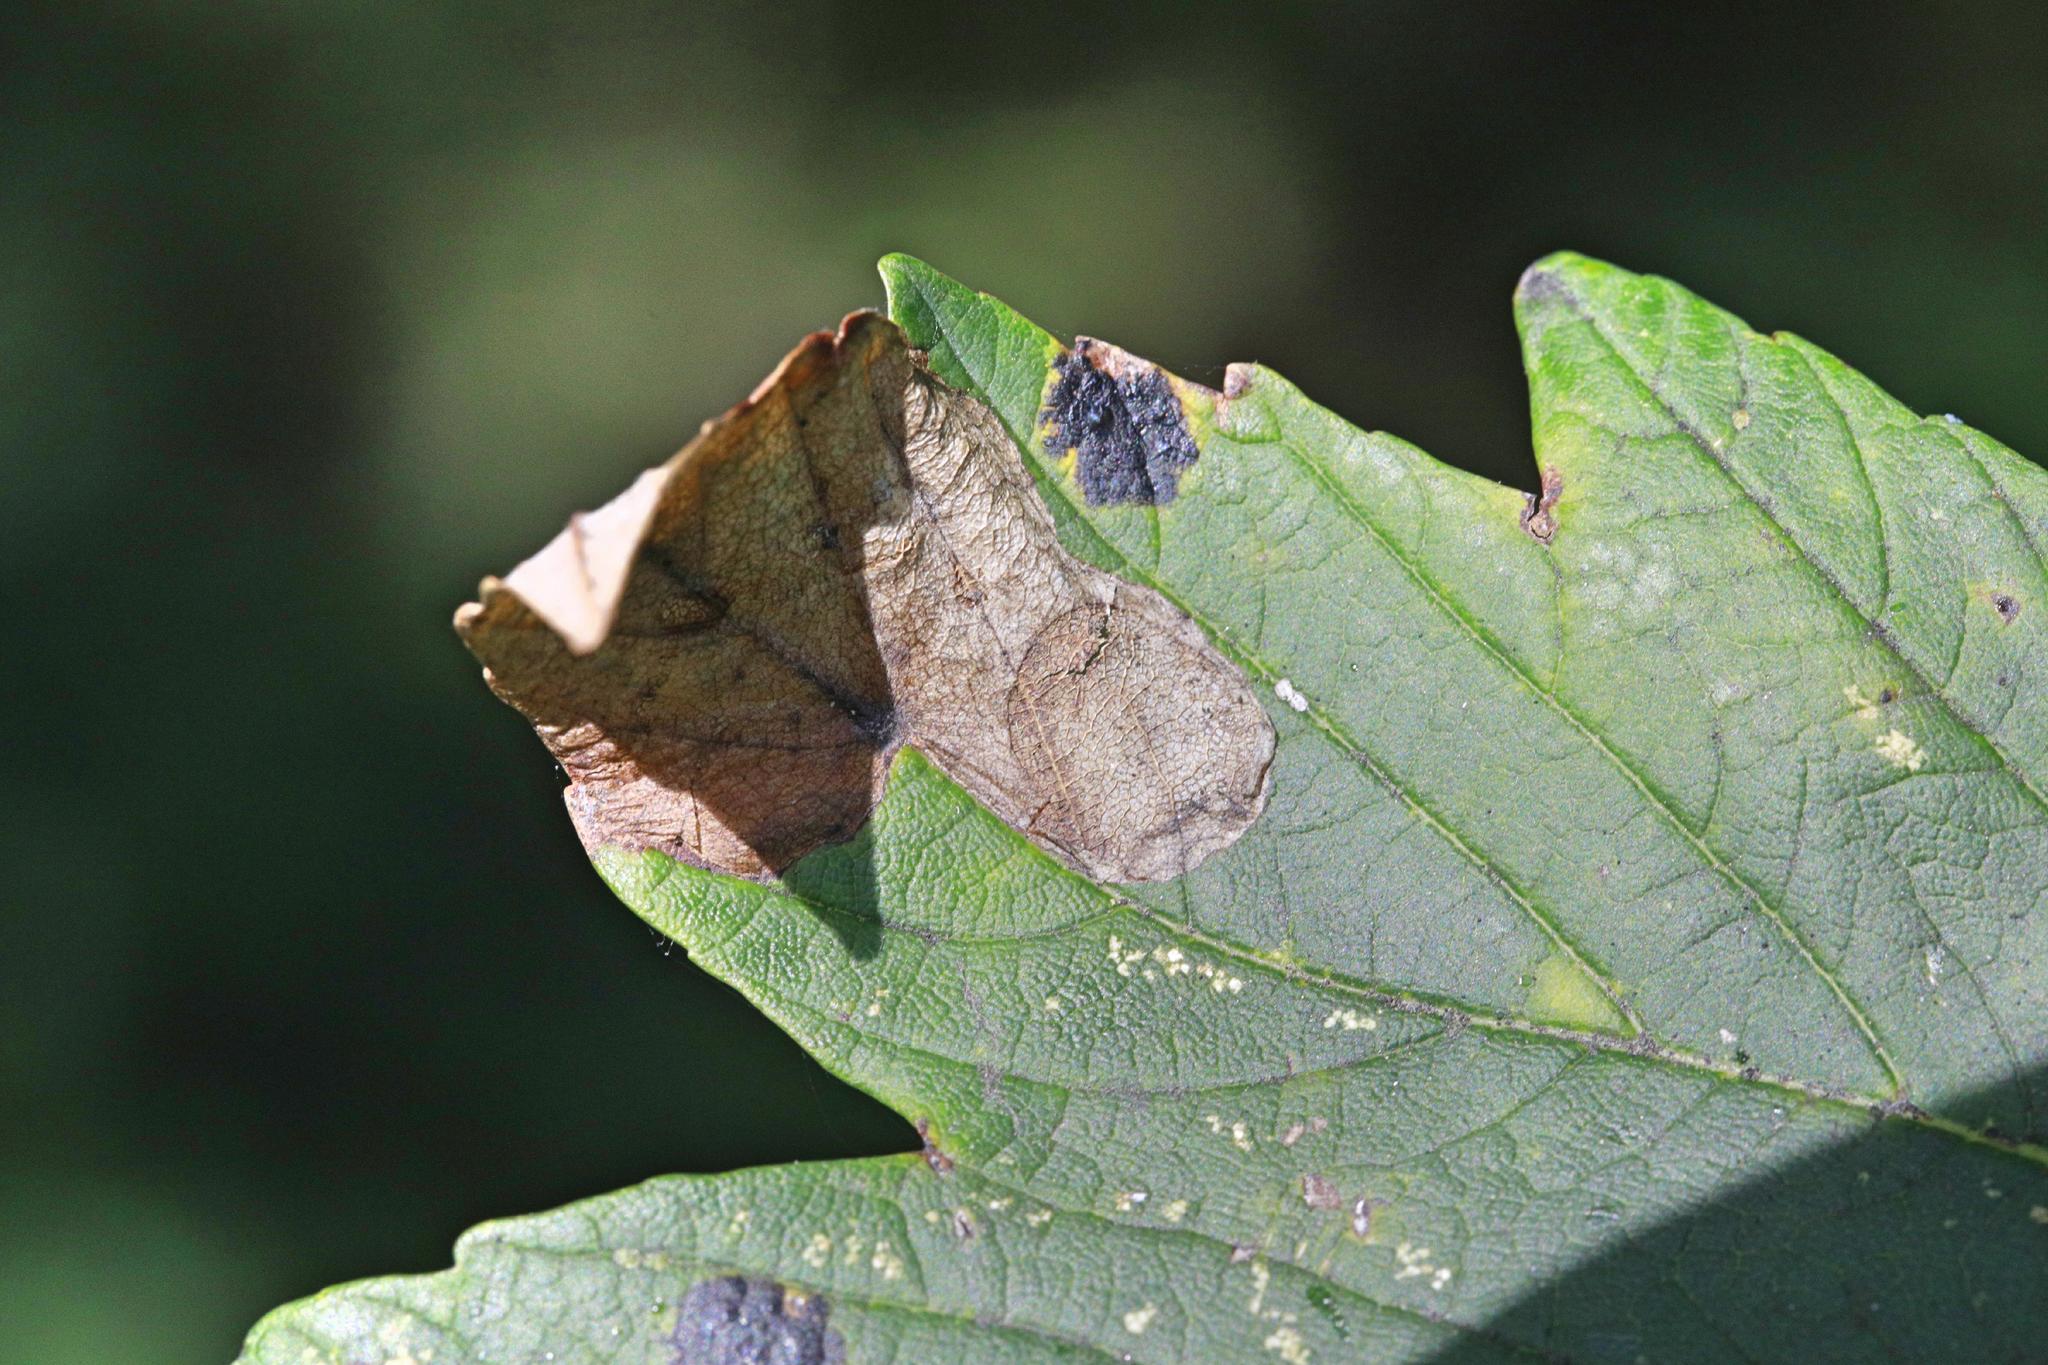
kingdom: Animalia
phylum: Arthropoda
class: Insecta
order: Hymenoptera
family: Tenthredinidae
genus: Heterarthrus
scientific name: Heterarthrus fiora
